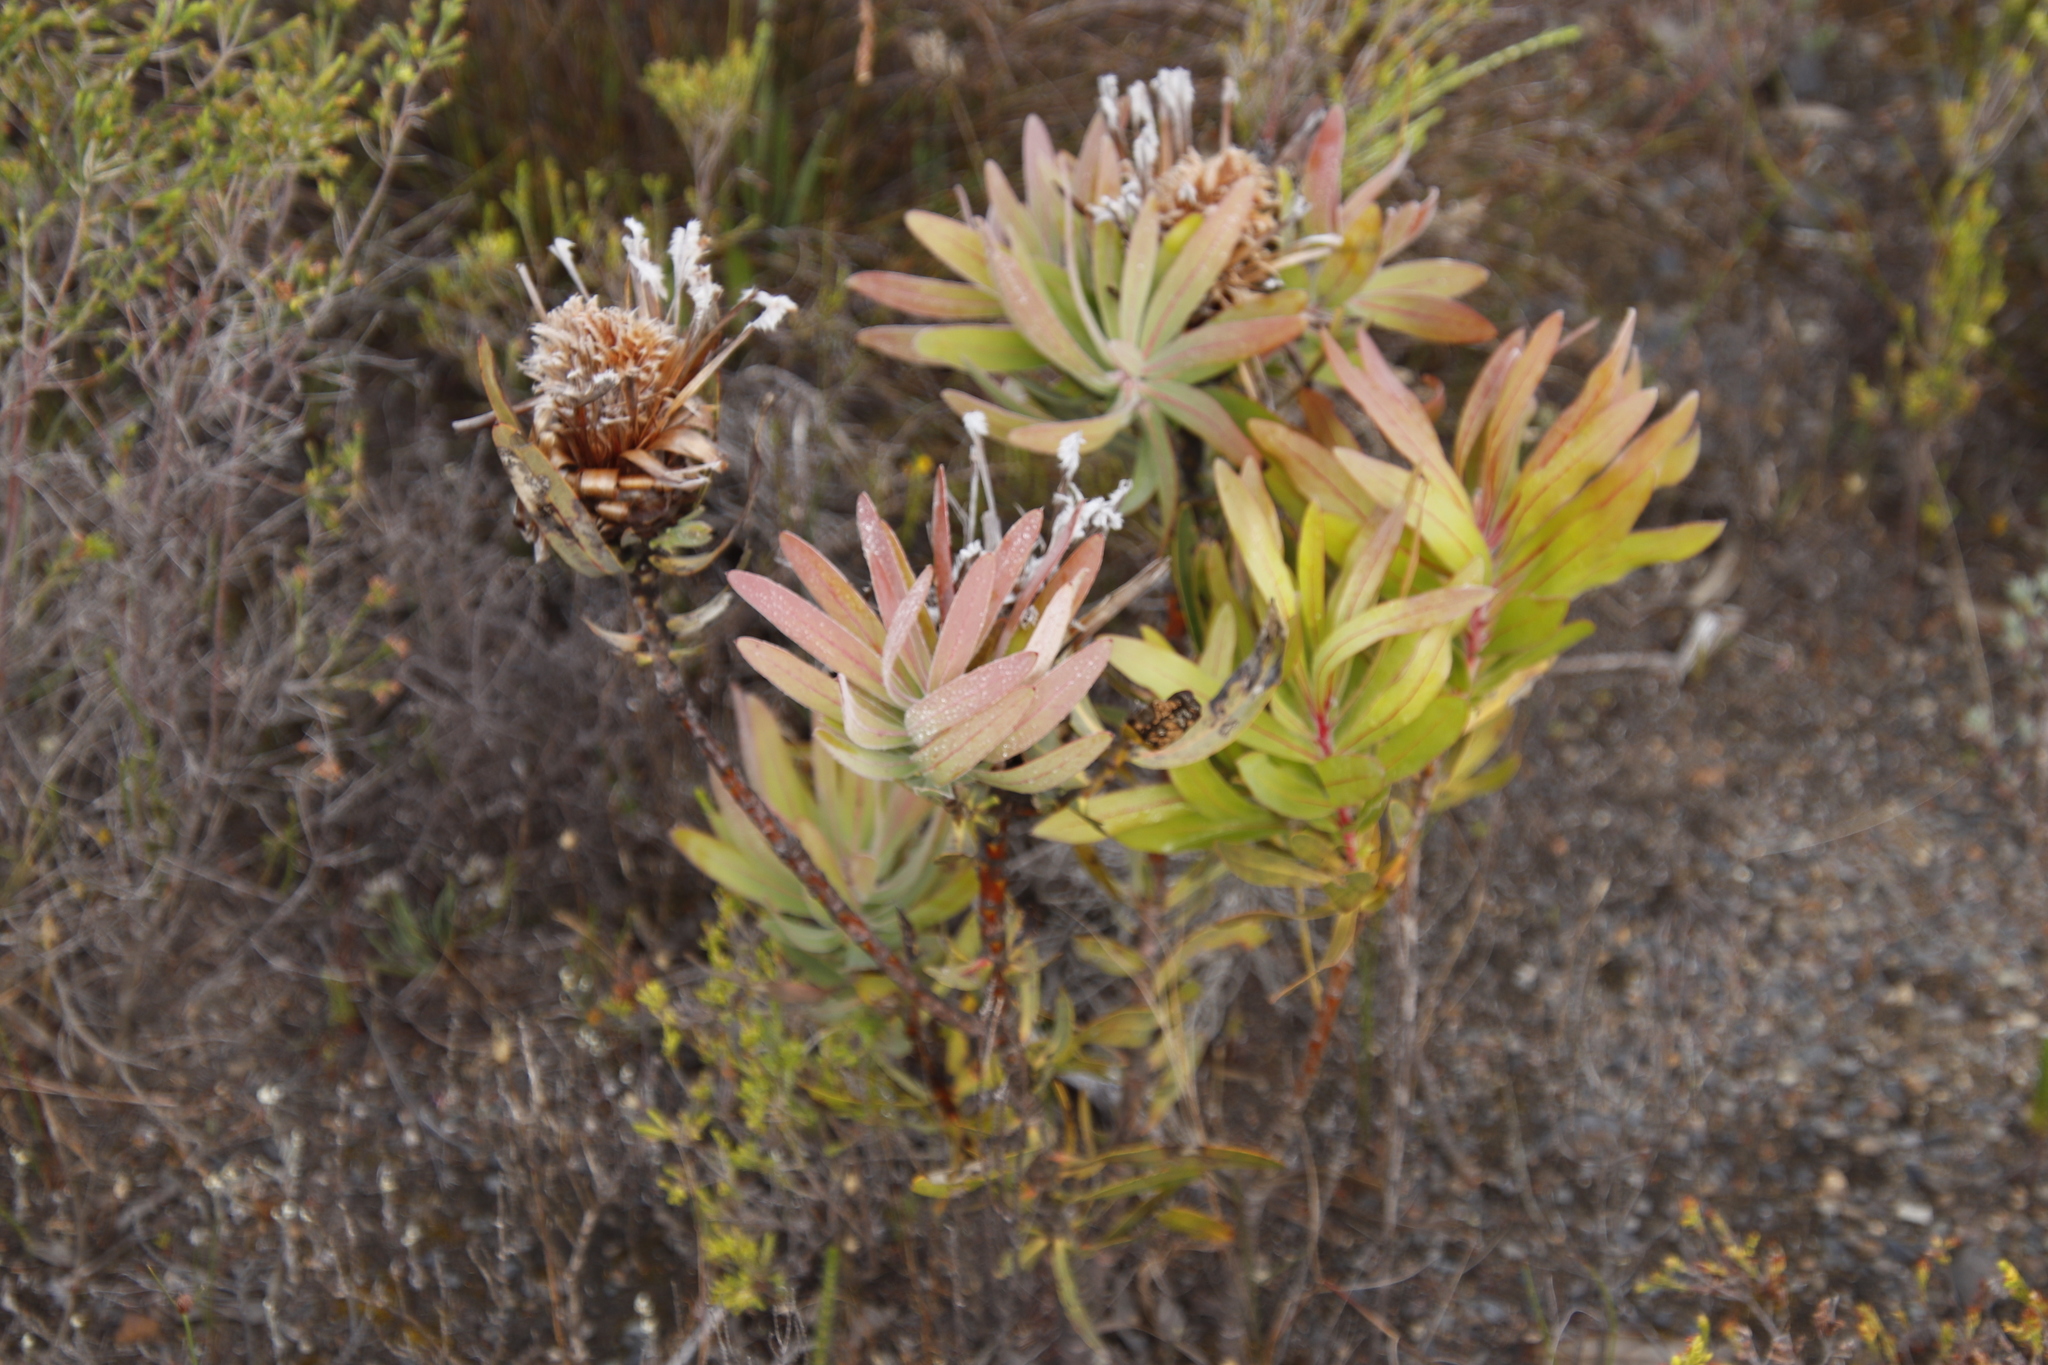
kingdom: Plantae
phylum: Tracheophyta
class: Magnoliopsida
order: Proteales
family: Proteaceae
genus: Protea
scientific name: Protea
